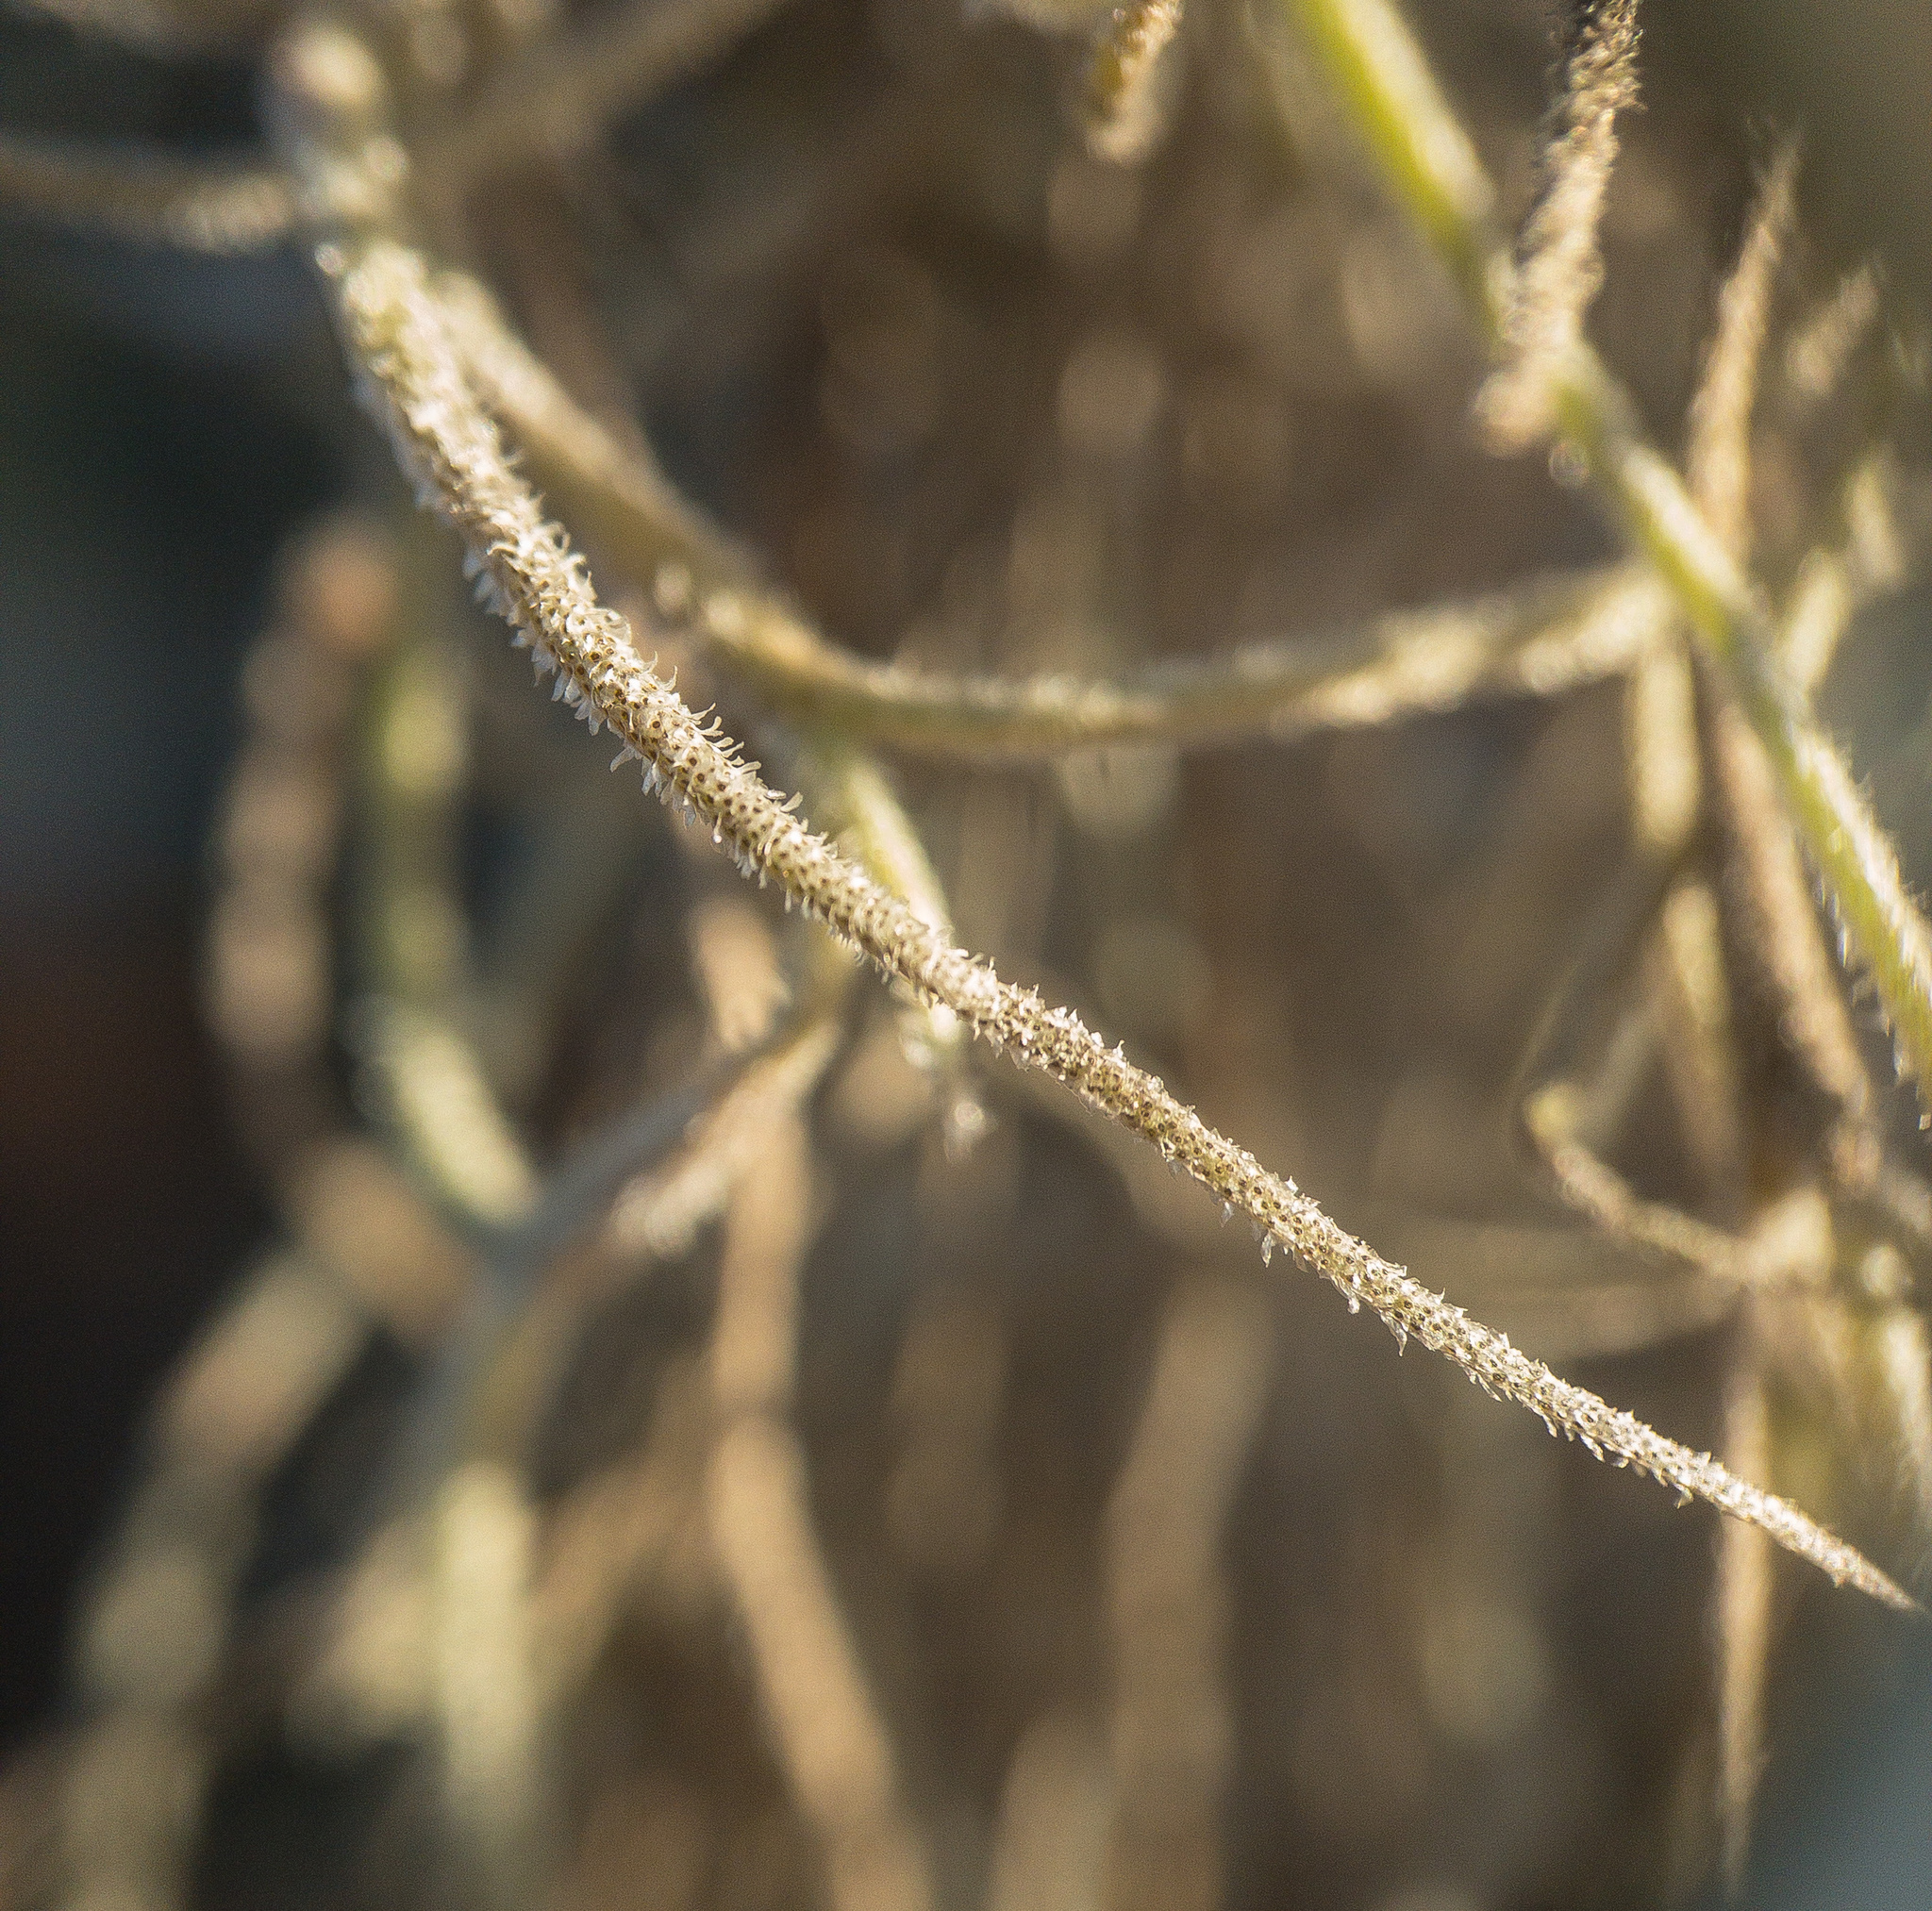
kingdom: Plantae
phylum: Tracheophyta
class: Liliopsida
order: Poales
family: Bromeliaceae
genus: Tillandsia
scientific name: Tillandsia usneoides
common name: Spanish moss
